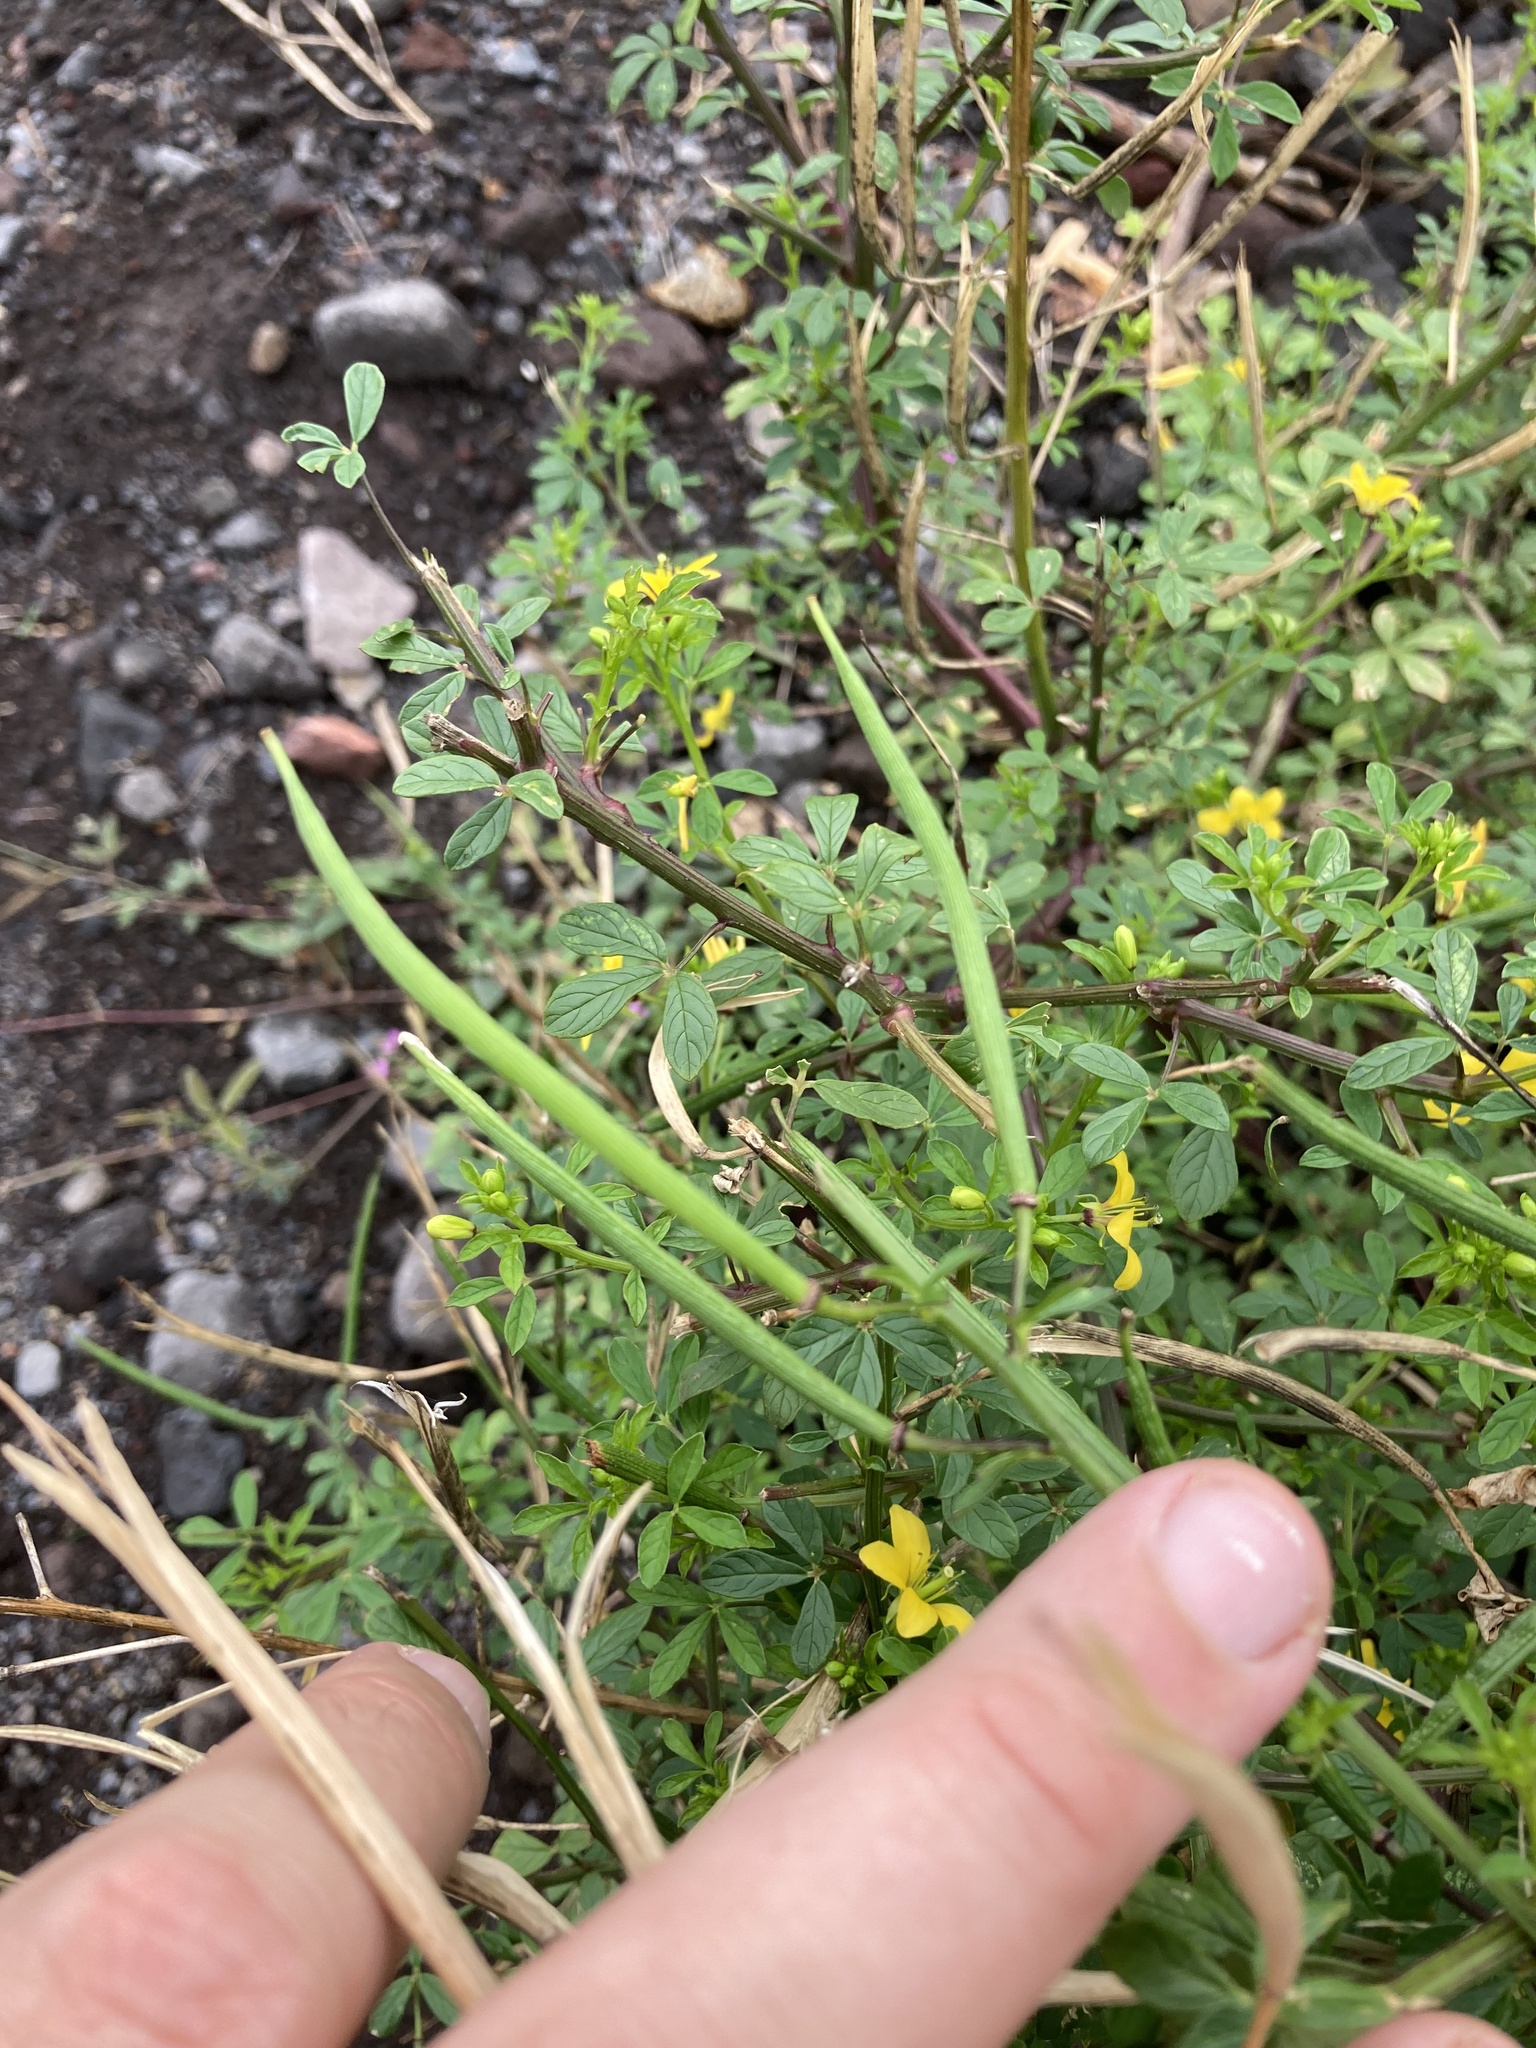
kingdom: Plantae
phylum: Tracheophyta
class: Magnoliopsida
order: Brassicales
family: Cleomaceae
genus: Arivela
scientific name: Arivela viscosa
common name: Asian spiderflower
